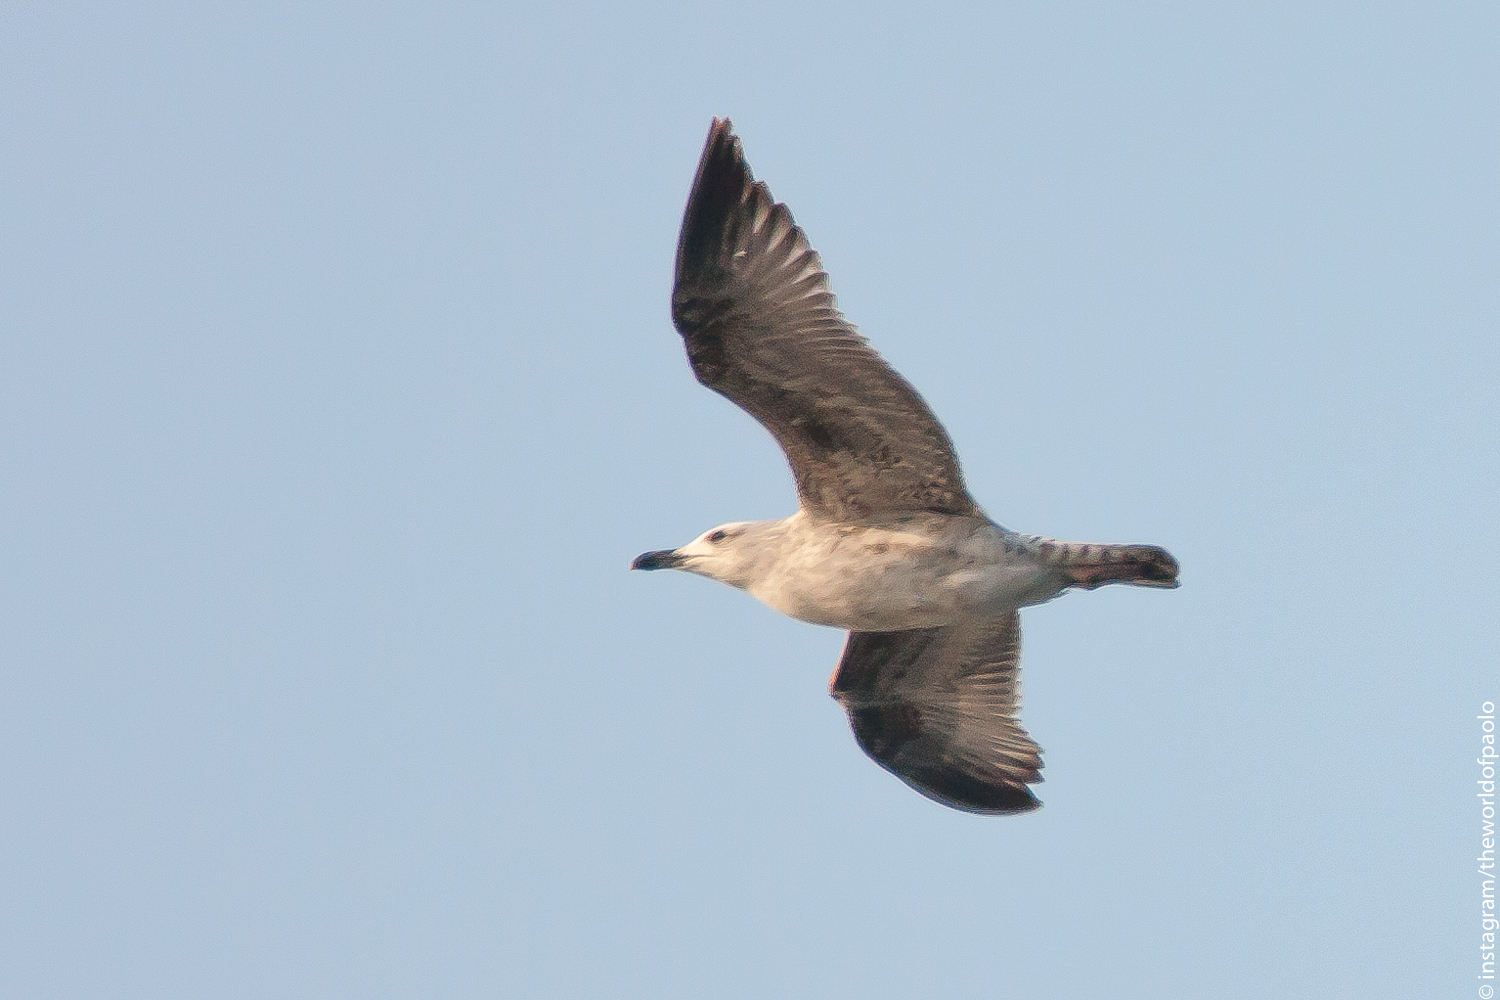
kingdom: Animalia
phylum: Chordata
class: Aves
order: Charadriiformes
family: Laridae
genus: Larus
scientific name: Larus michahellis
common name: Yellow-legged gull
